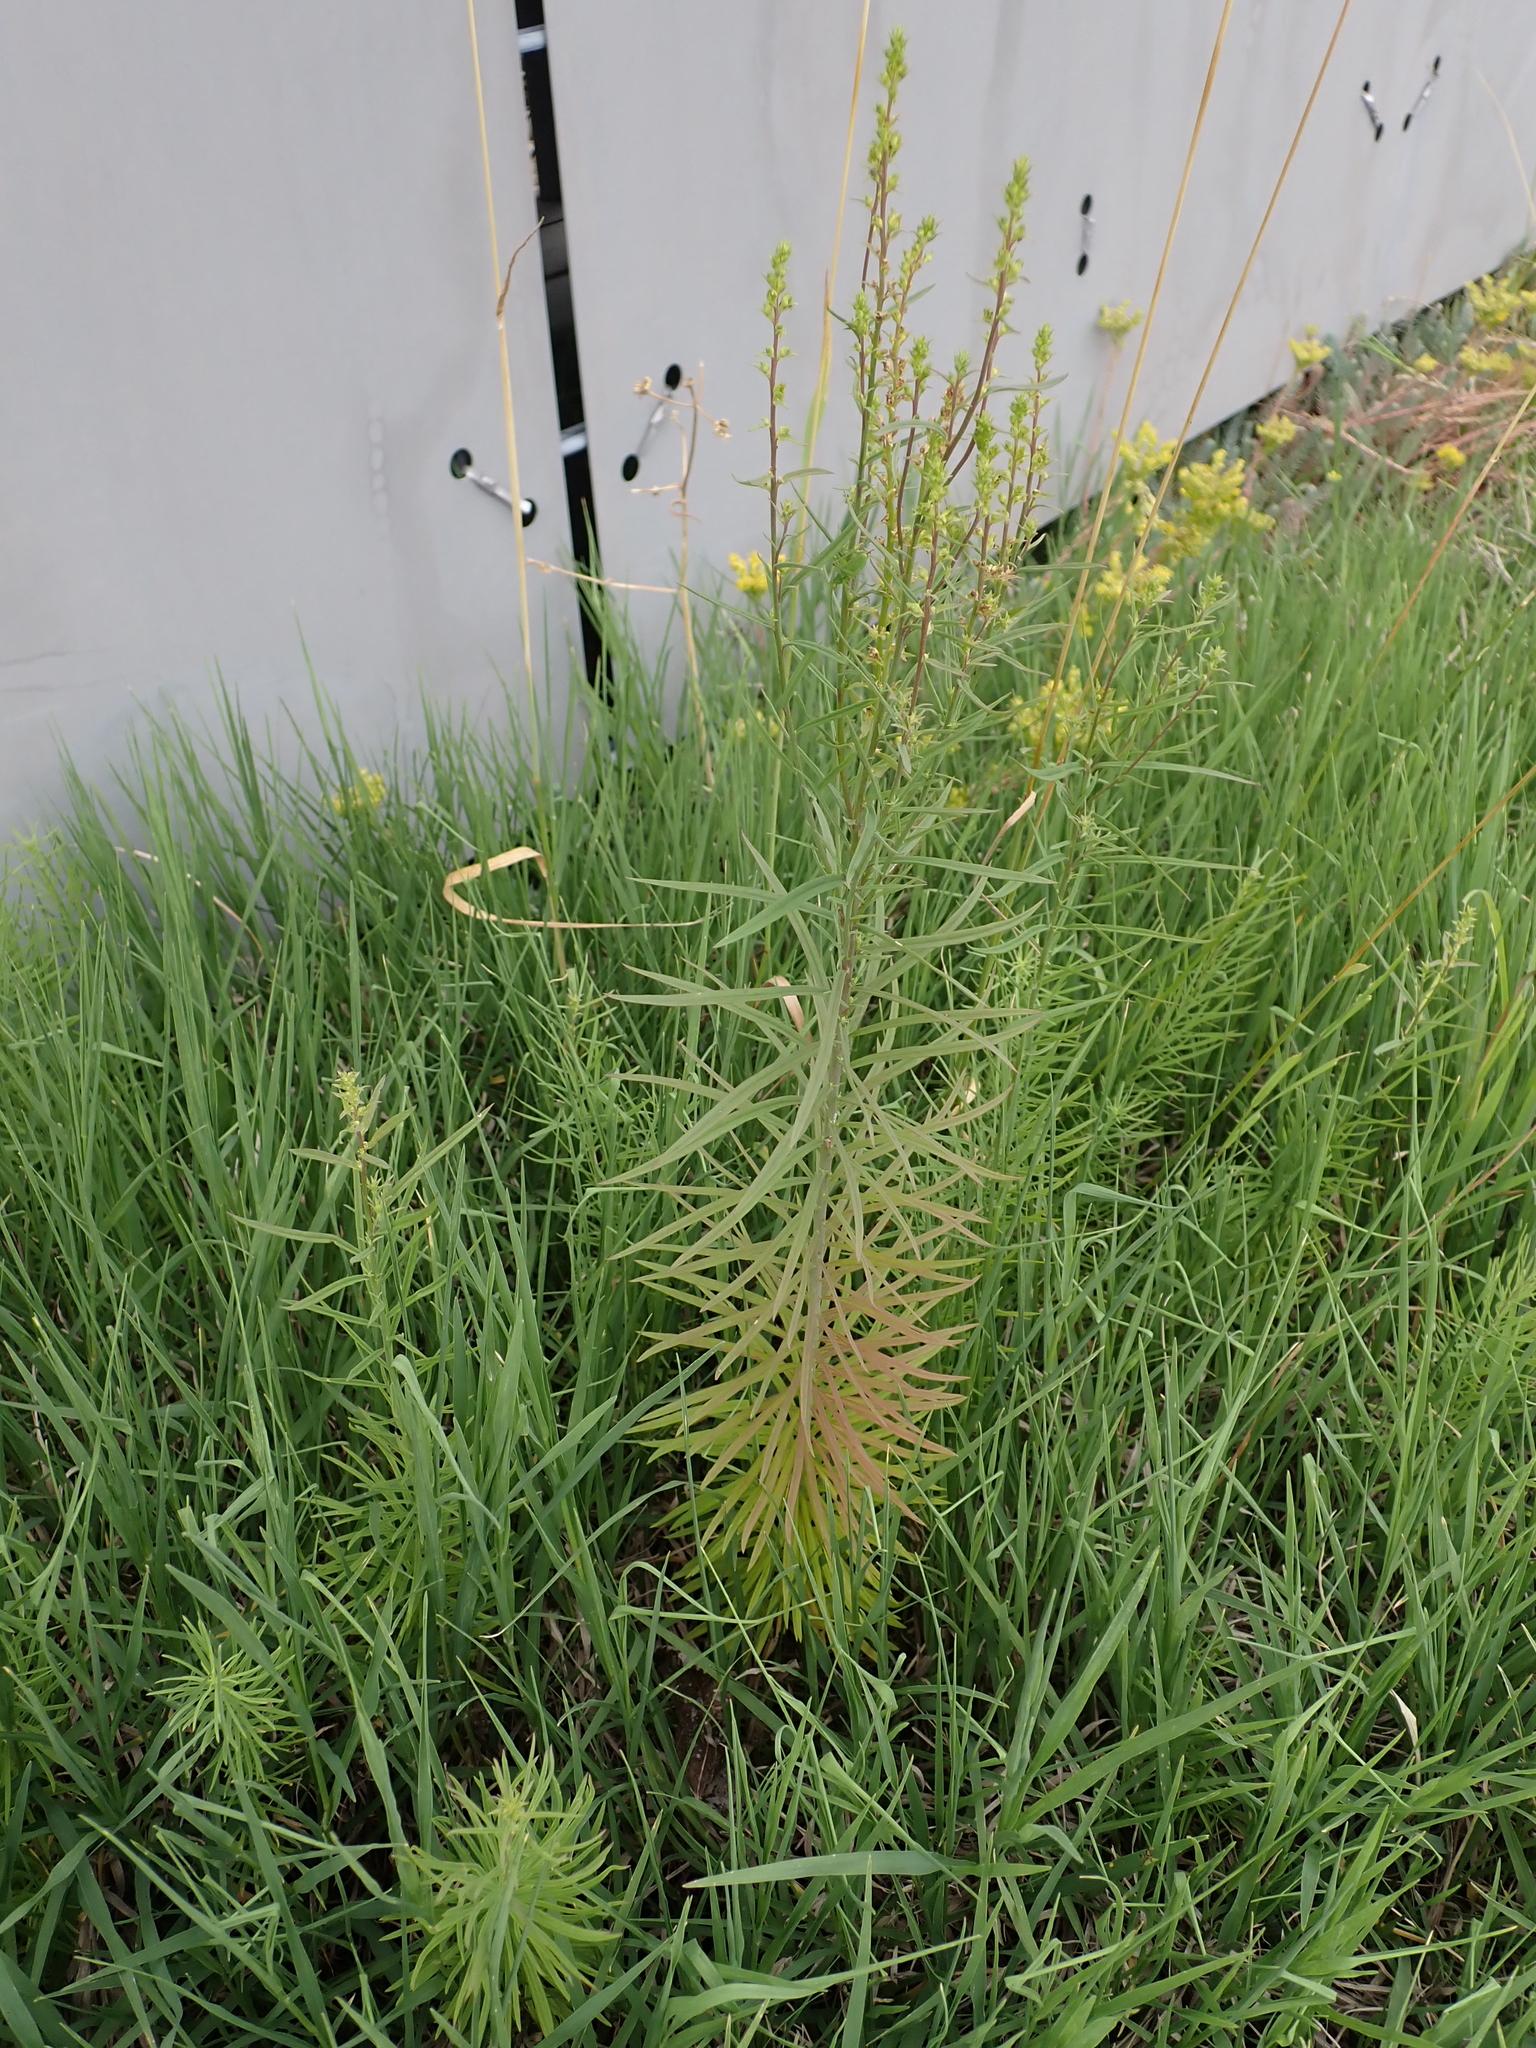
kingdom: Plantae
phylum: Tracheophyta
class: Magnoliopsida
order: Lamiales
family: Plantaginaceae
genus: Linaria
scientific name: Linaria vulgaris
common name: Butter and eggs
